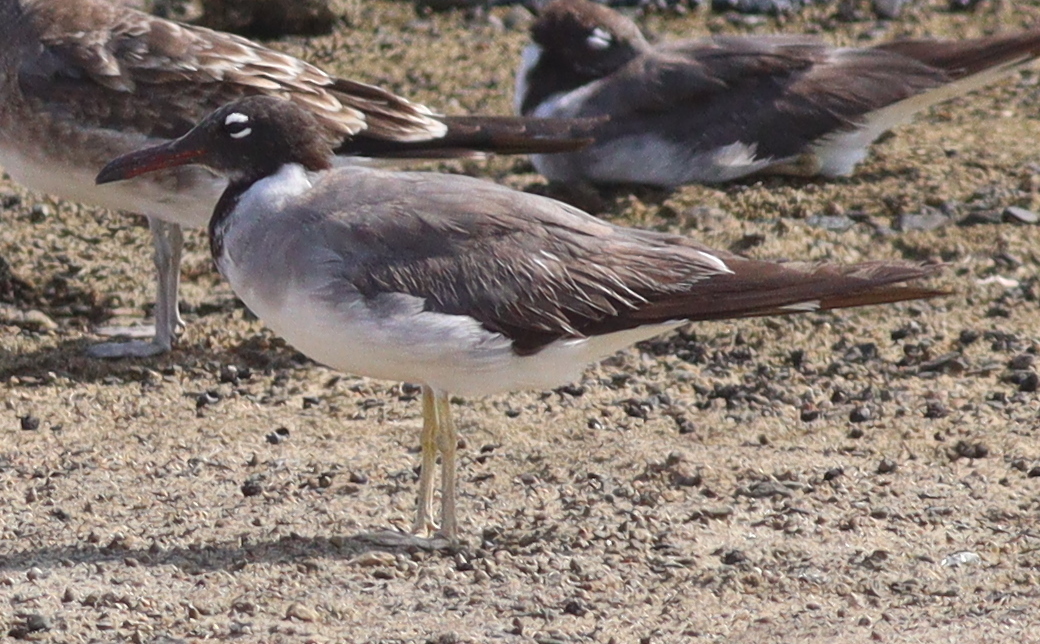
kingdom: Animalia
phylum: Chordata
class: Aves
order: Charadriiformes
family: Laridae
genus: Ichthyaetus
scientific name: Ichthyaetus leucophthalmus
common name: White-eyed gull
